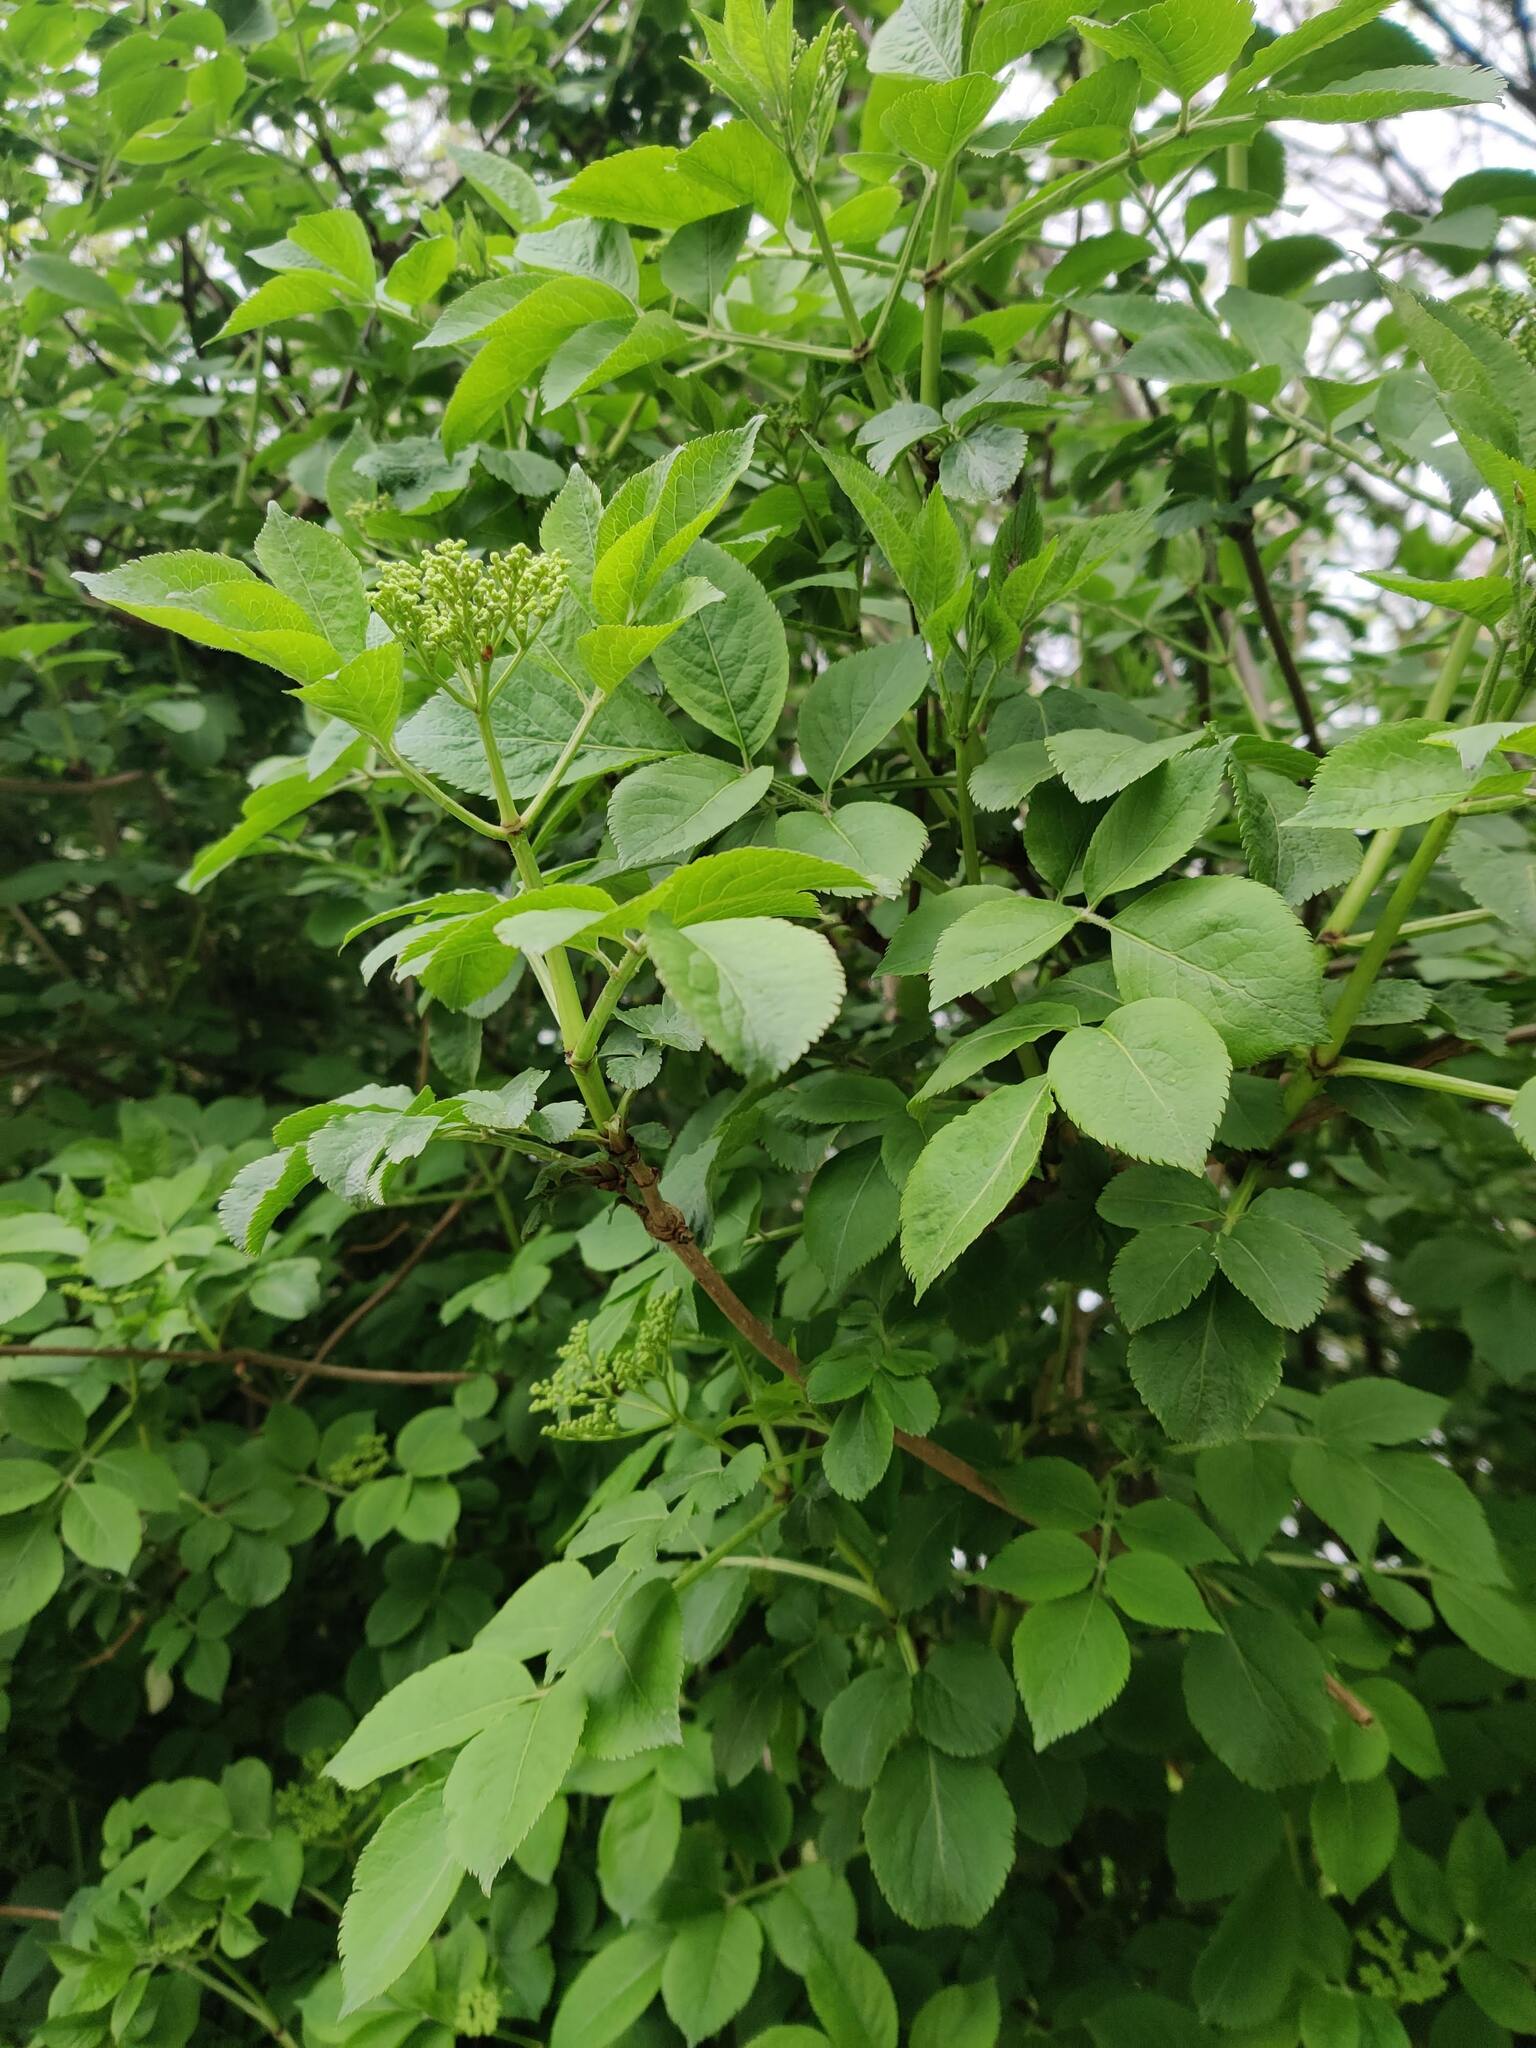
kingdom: Plantae
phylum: Tracheophyta
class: Magnoliopsida
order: Dipsacales
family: Viburnaceae
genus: Sambucus
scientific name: Sambucus nigra
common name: Elder
